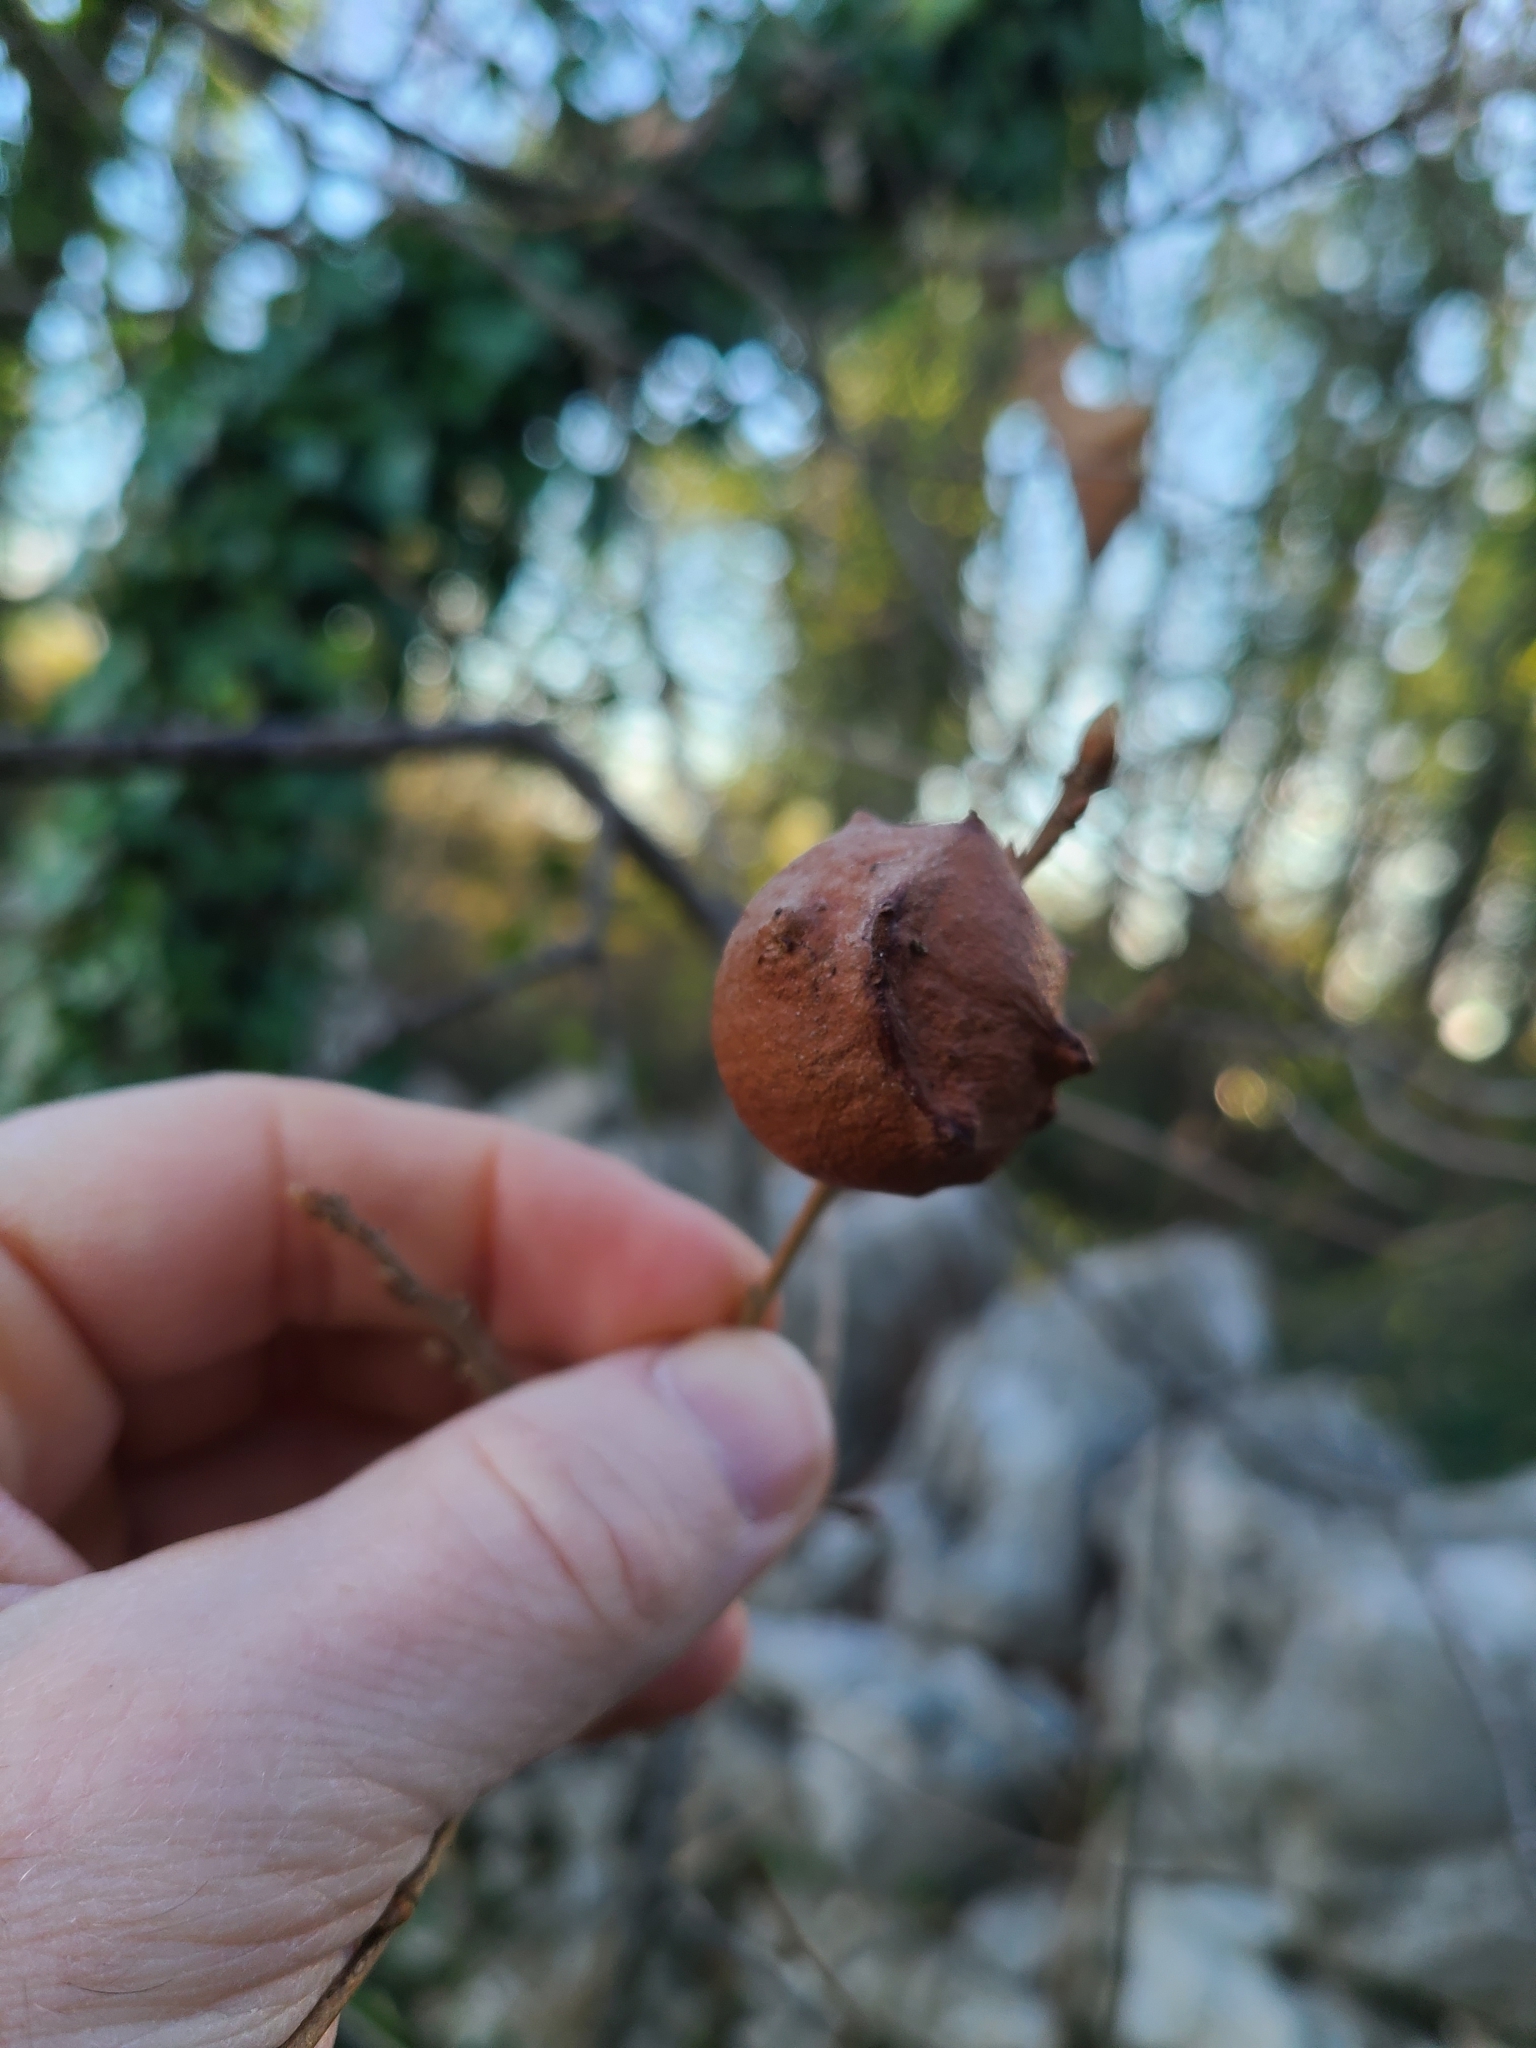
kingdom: Animalia
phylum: Arthropoda
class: Insecta
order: Hymenoptera
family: Cynipidae
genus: Andricus
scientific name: Andricus quercustozae
